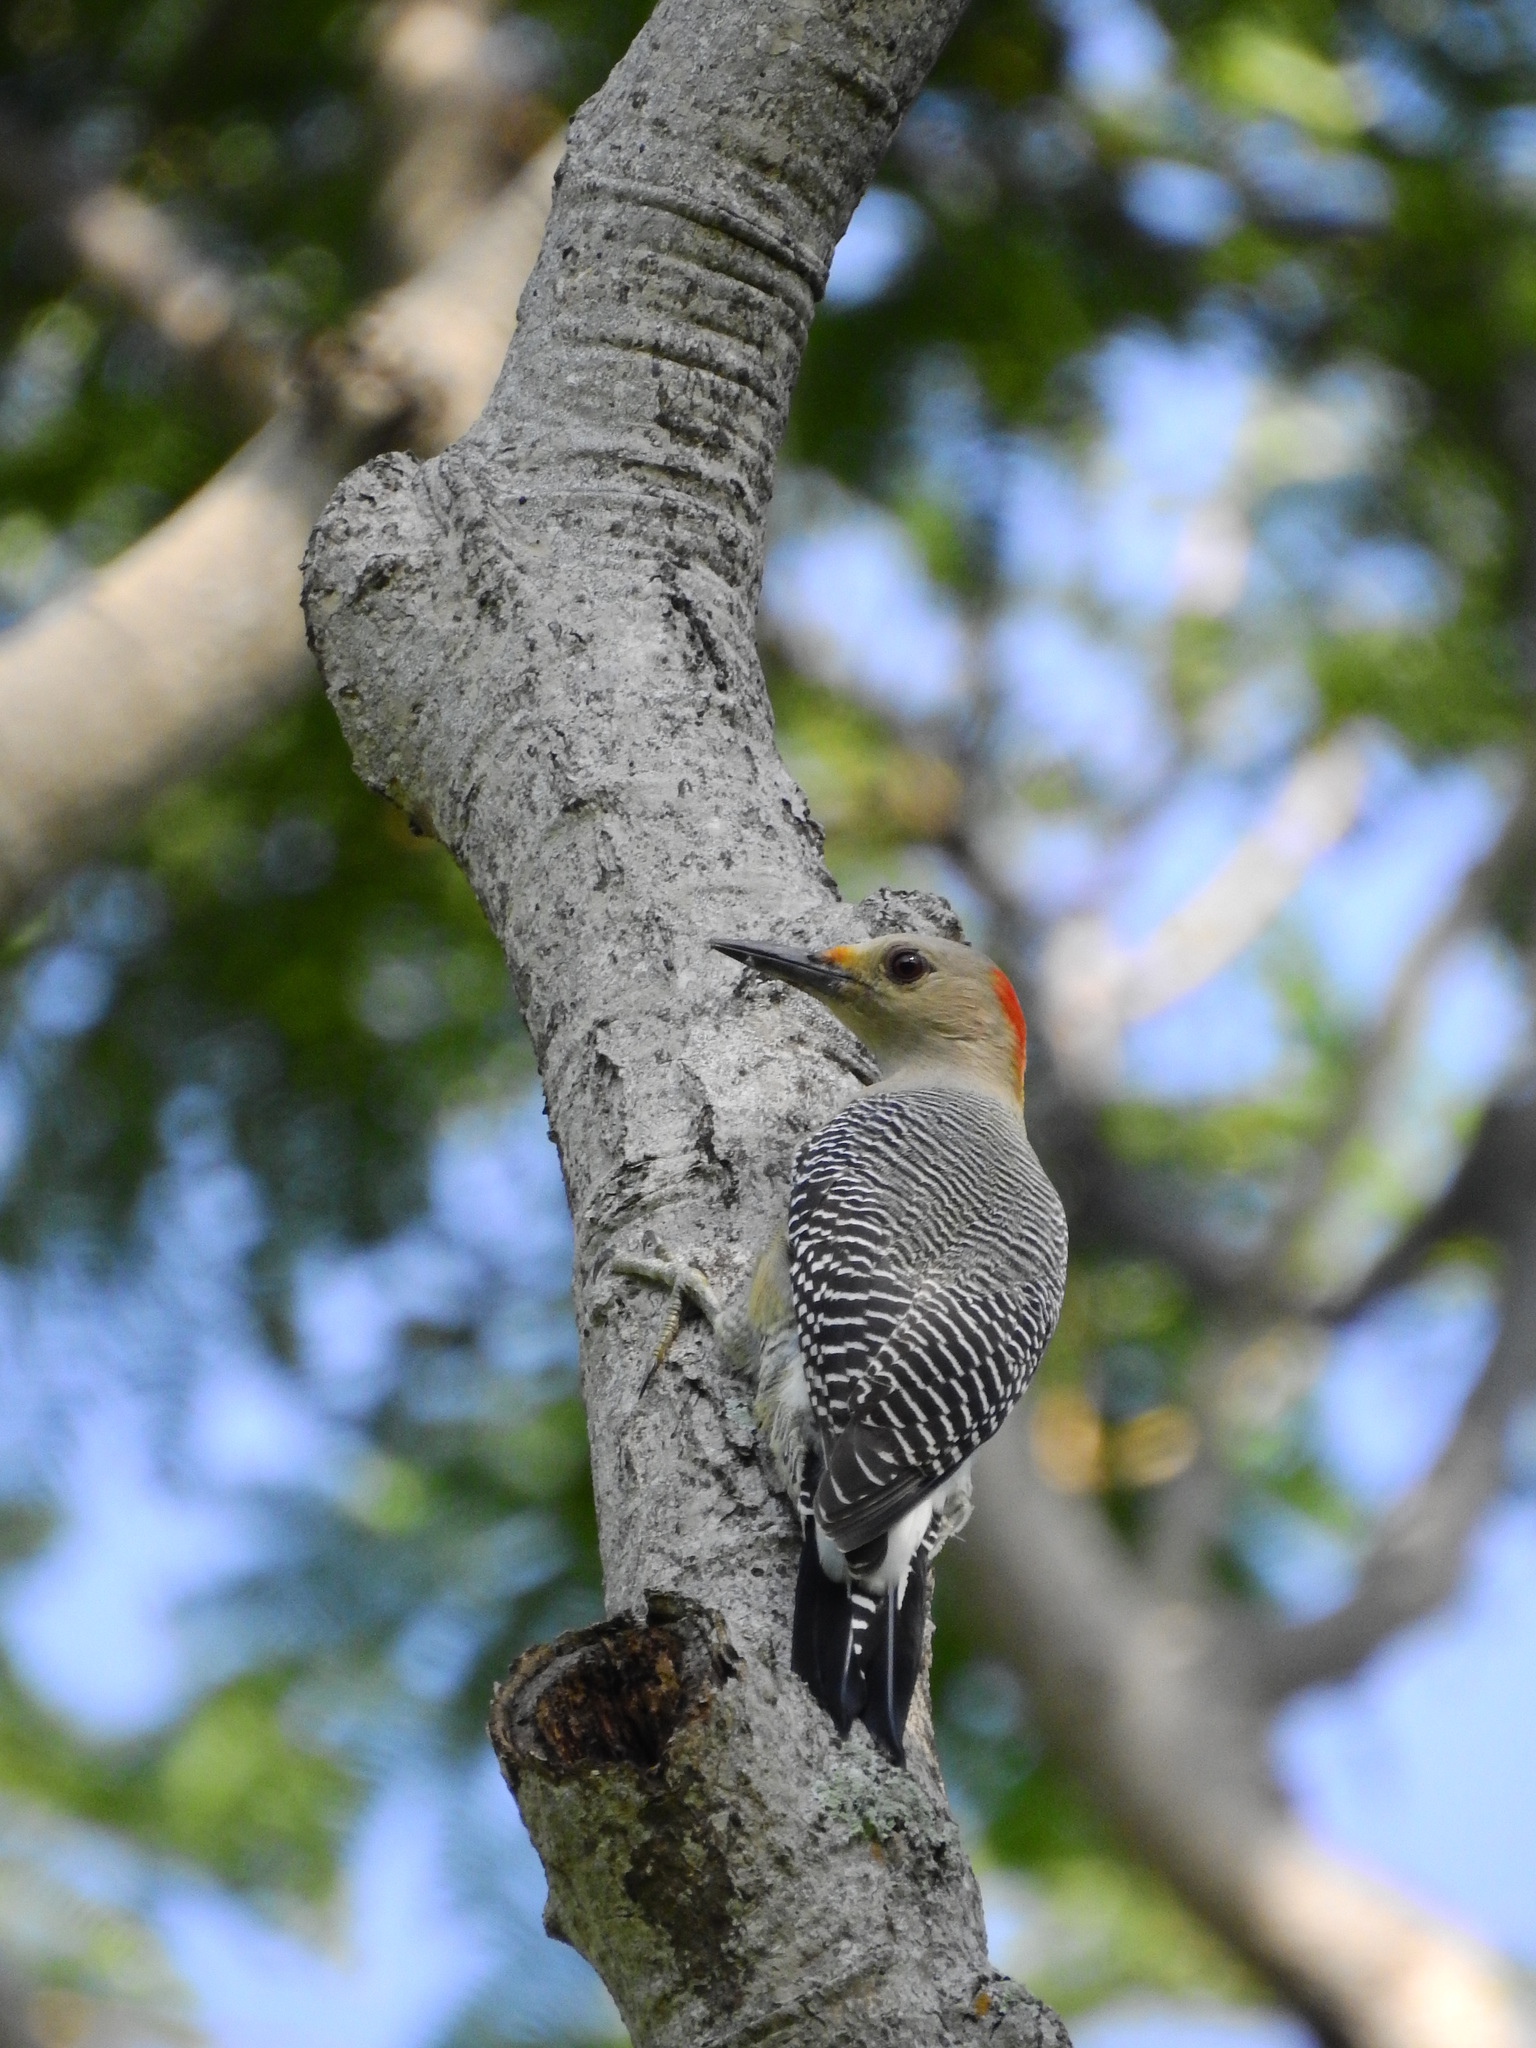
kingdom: Animalia
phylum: Chordata
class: Aves
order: Piciformes
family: Picidae
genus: Melanerpes
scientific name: Melanerpes aurifrons
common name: Golden-fronted woodpecker
